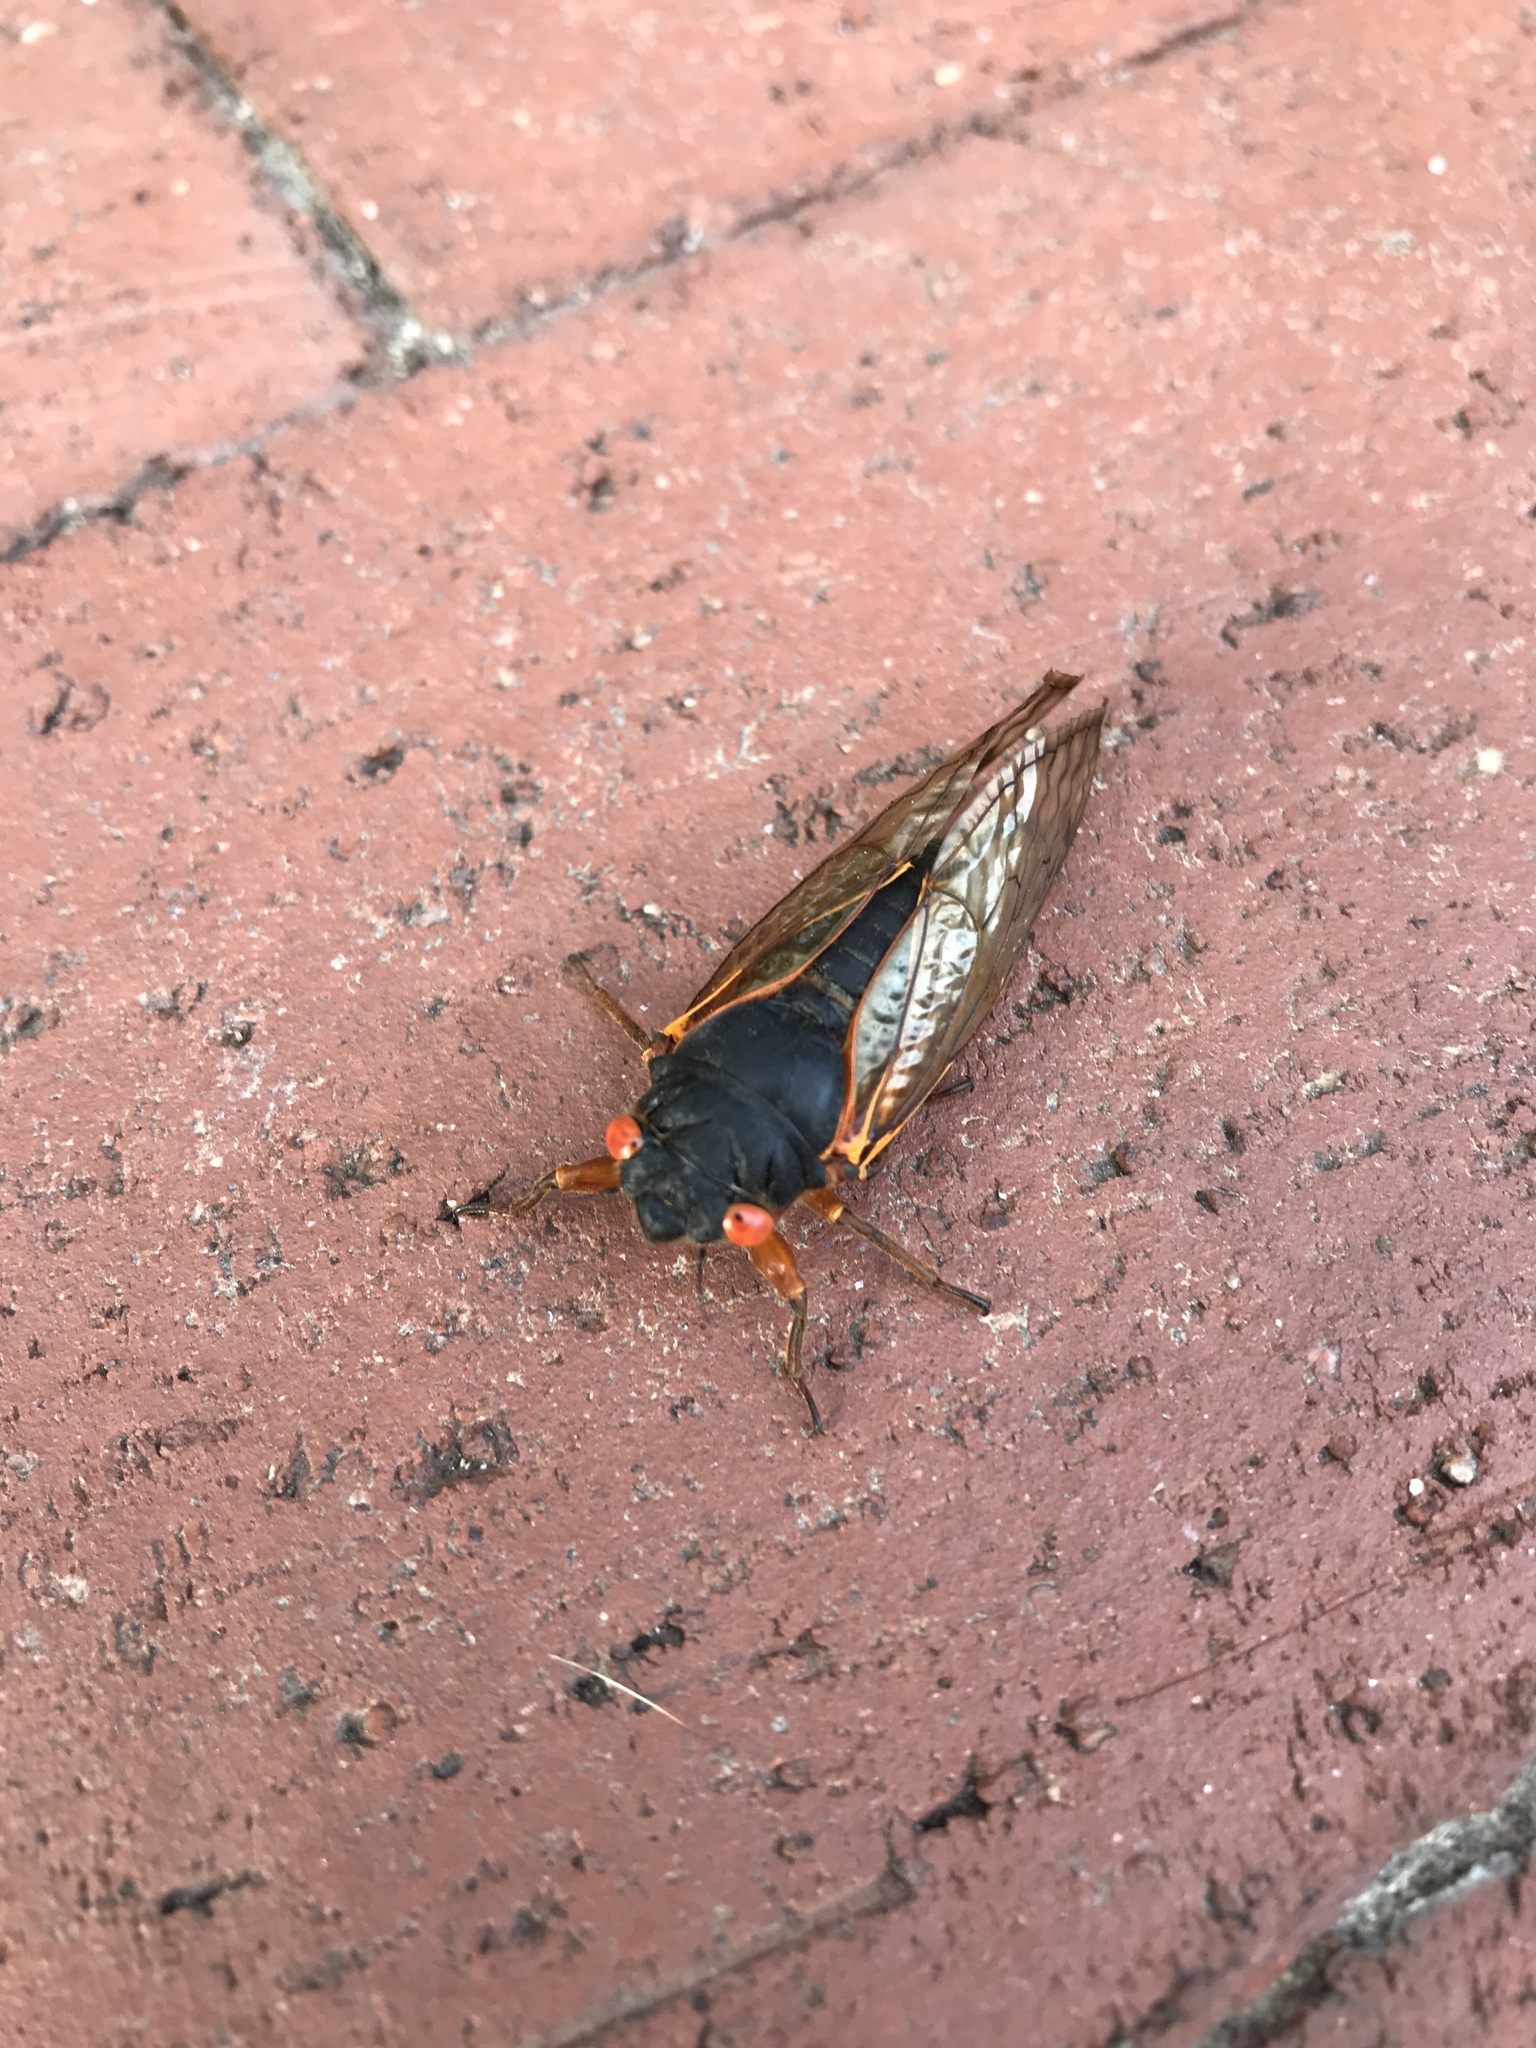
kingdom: Animalia
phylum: Arthropoda
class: Insecta
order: Hemiptera
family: Cicadidae
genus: Magicicada
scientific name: Magicicada
